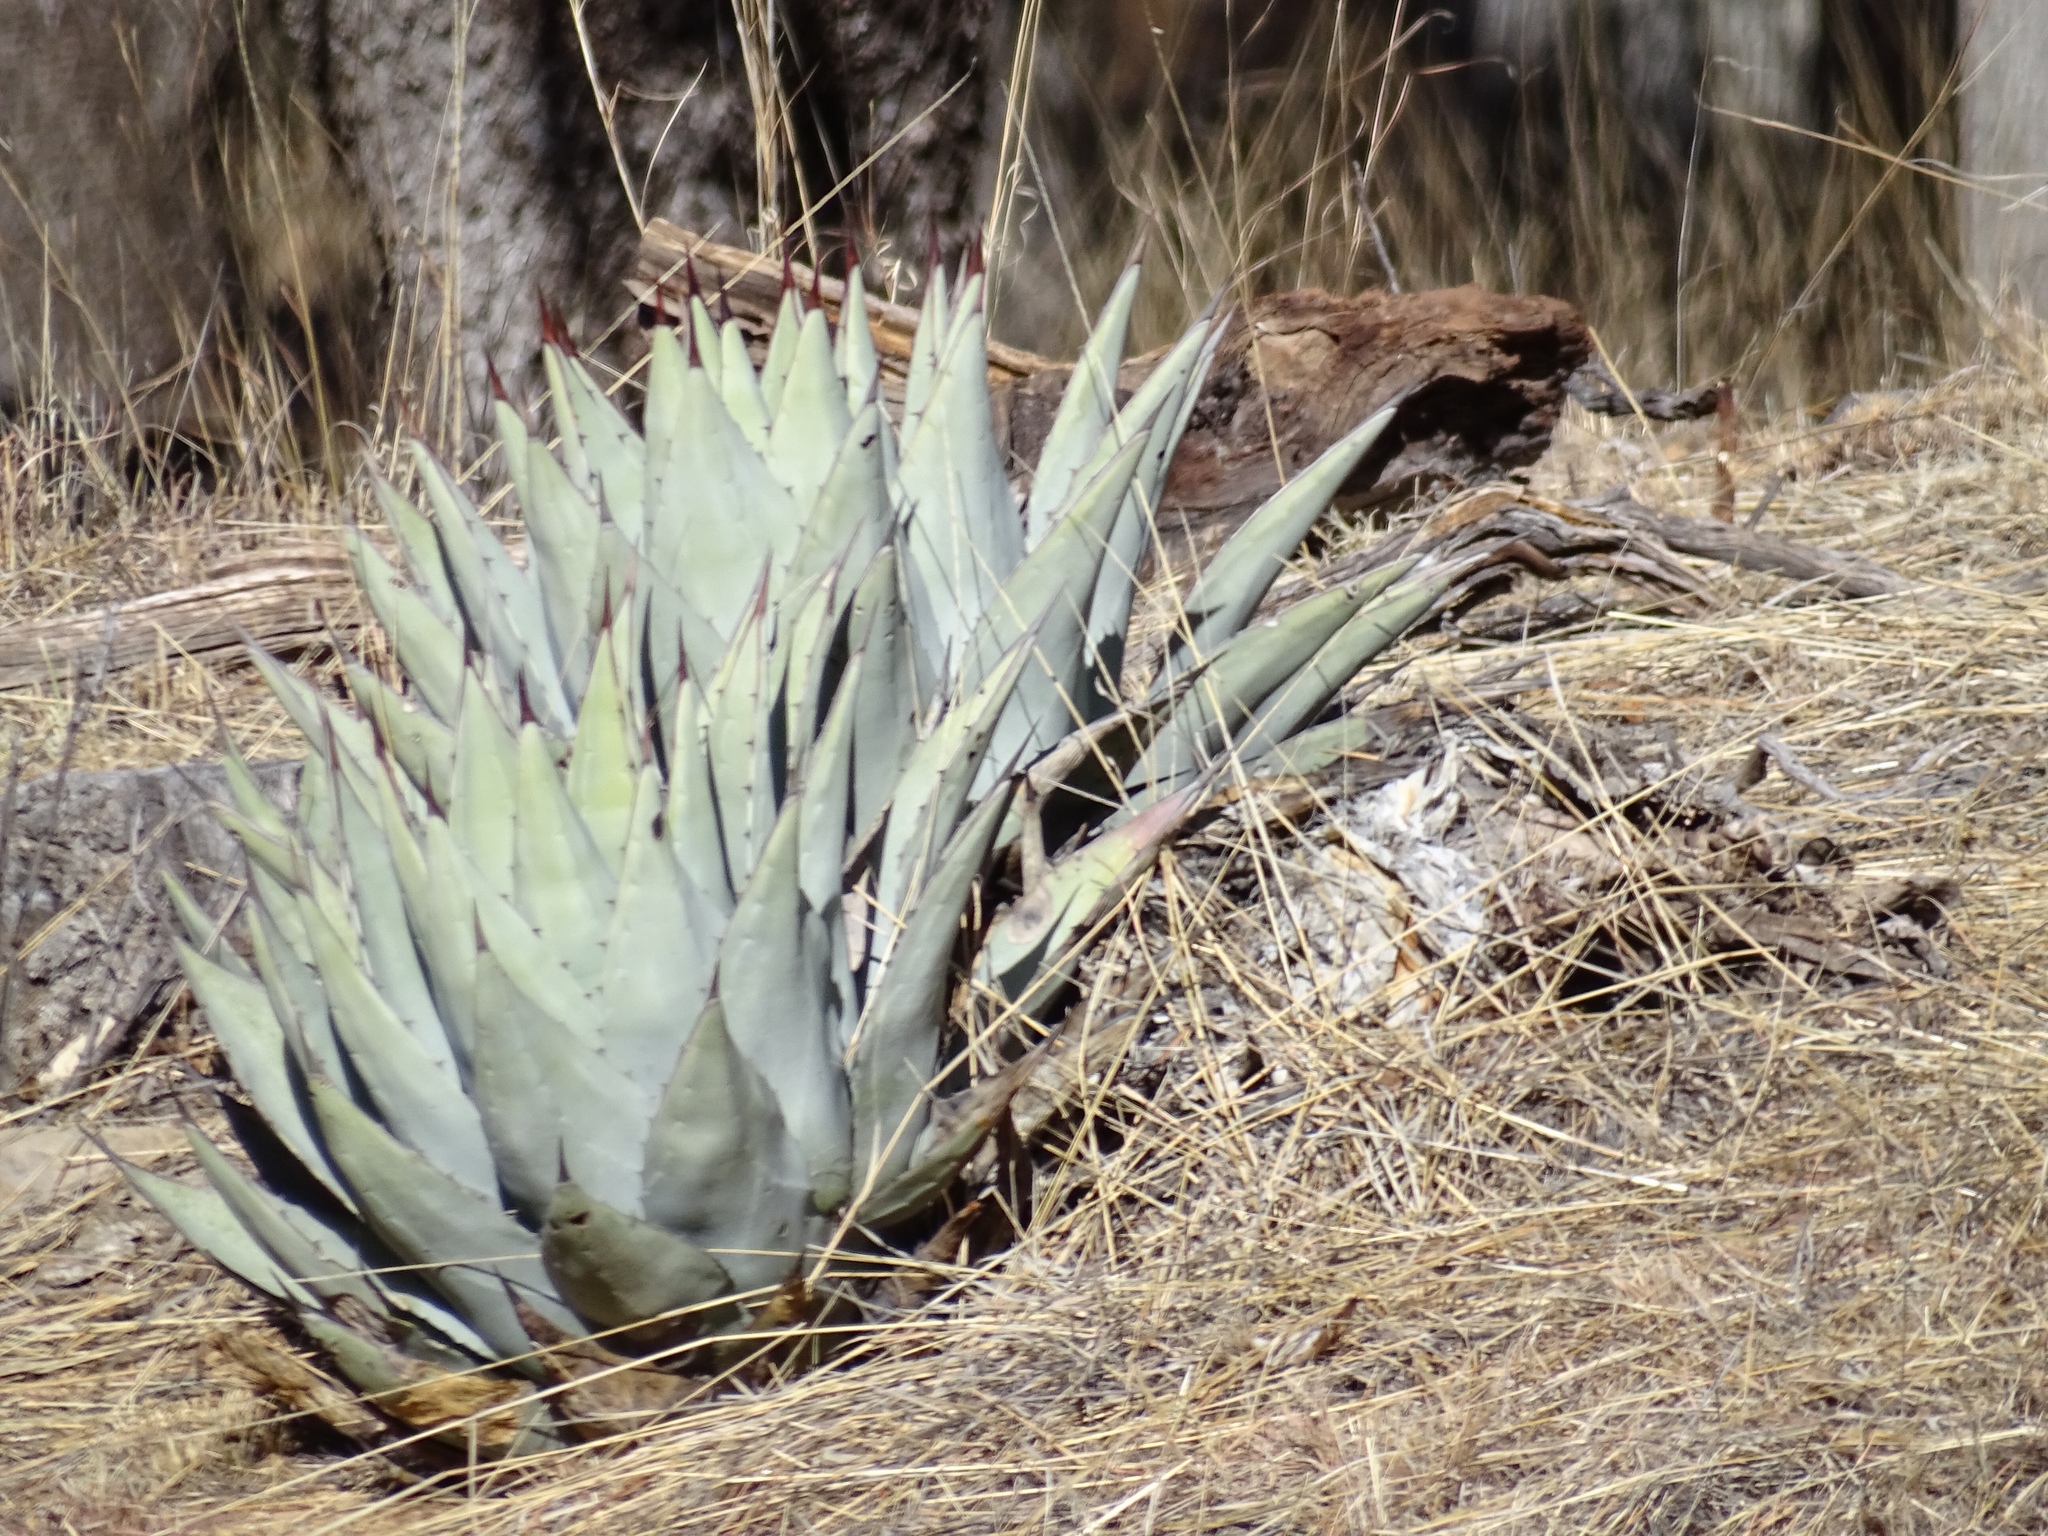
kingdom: Plantae
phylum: Tracheophyta
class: Liliopsida
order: Asparagales
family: Asparagaceae
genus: Agave
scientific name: Agave parryi
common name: Parry's agave
